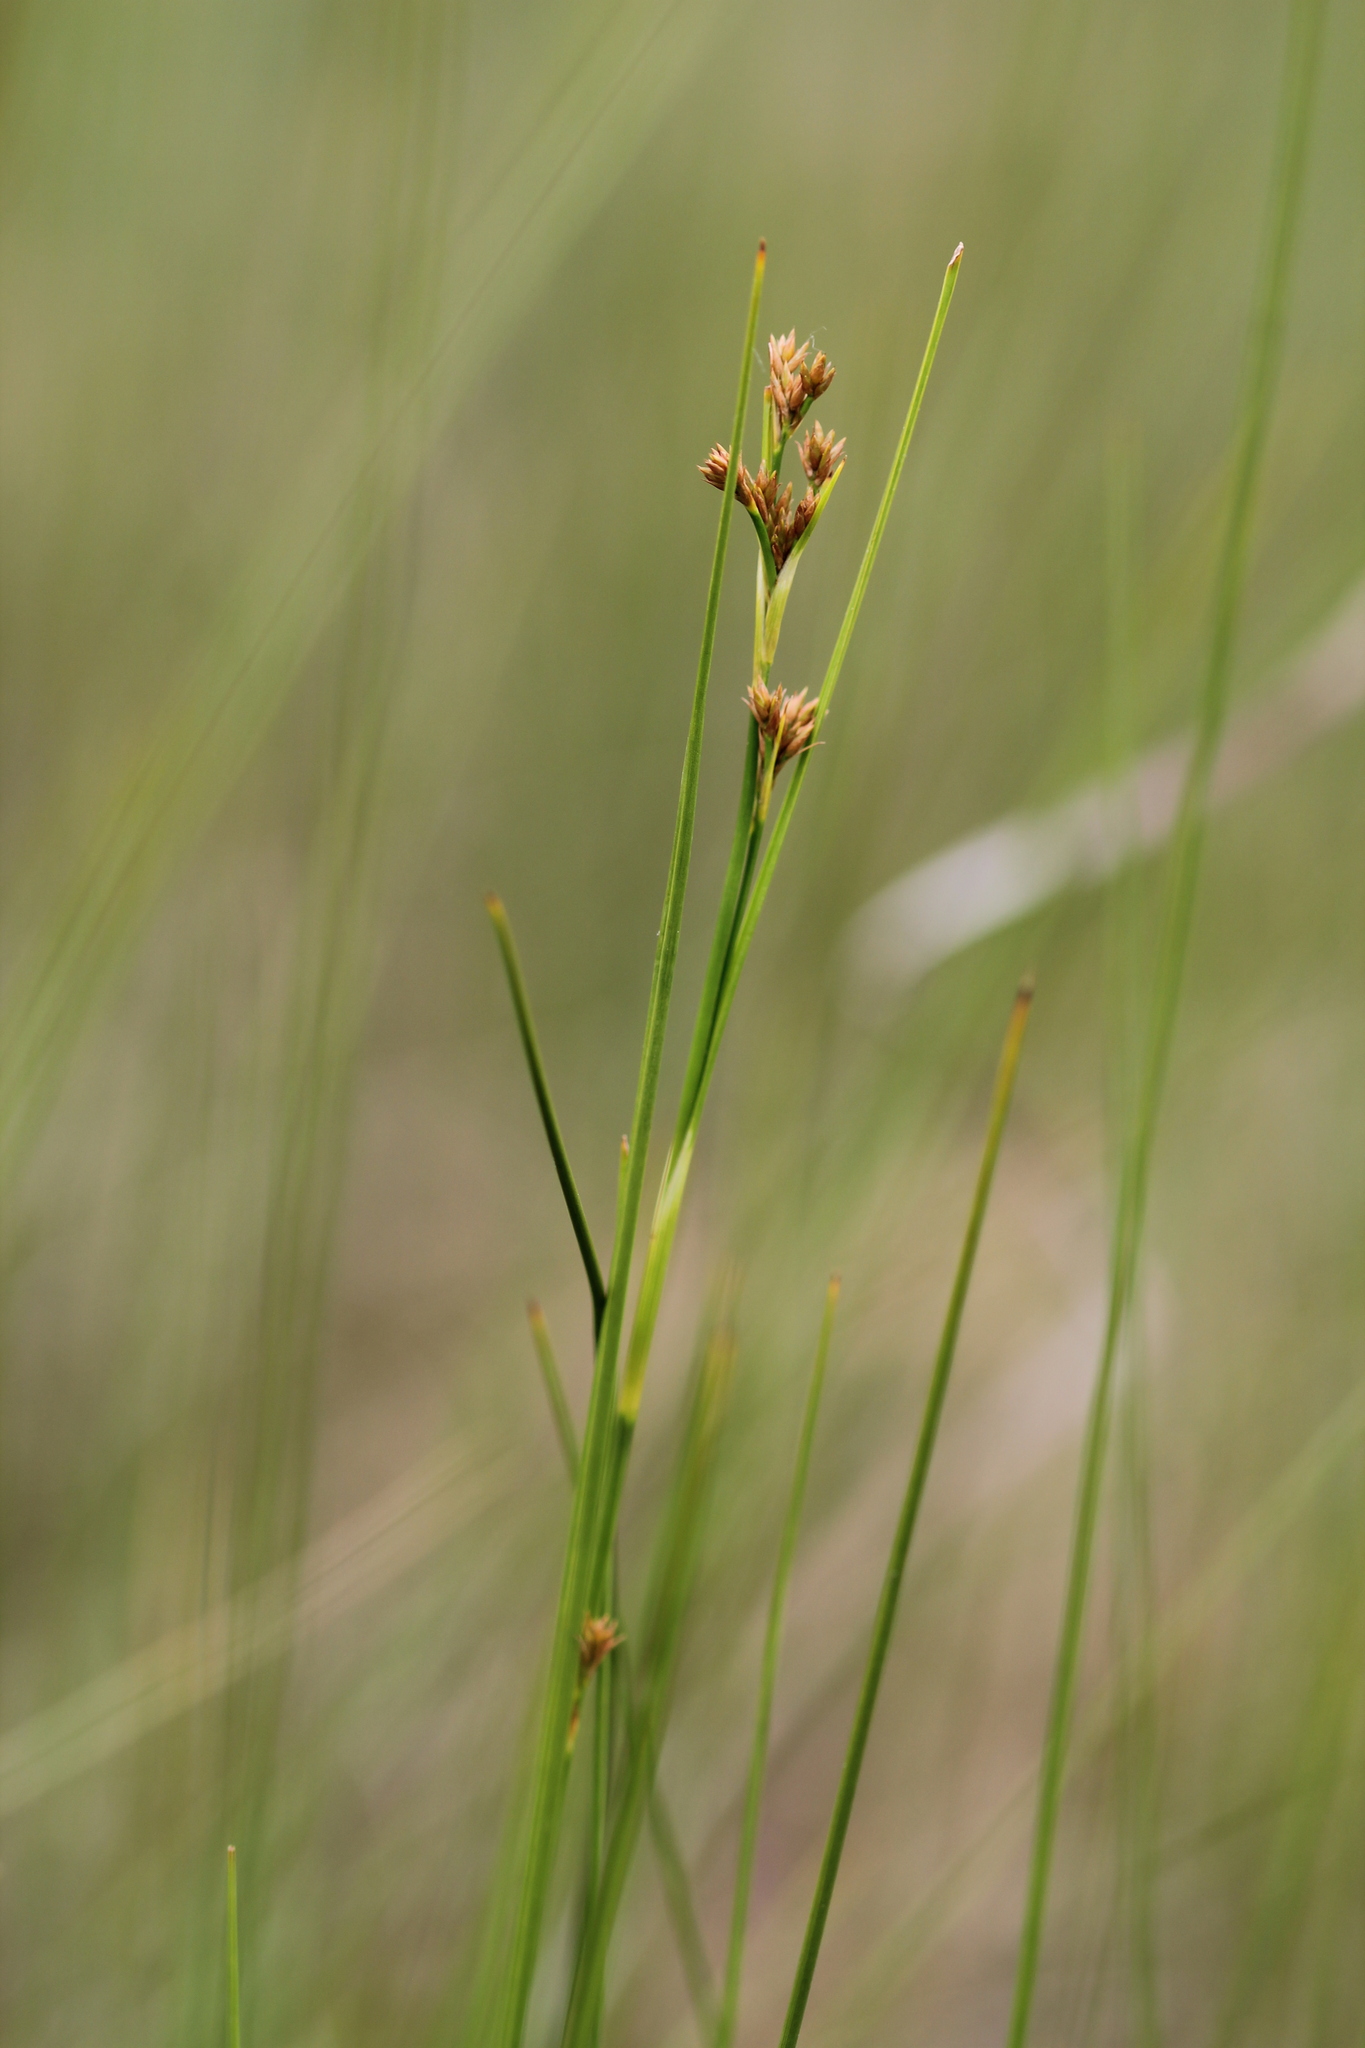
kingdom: Plantae
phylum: Tracheophyta
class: Liliopsida
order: Poales
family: Cyperaceae
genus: Cladium
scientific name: Cladium mariscoides
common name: Smooth sawgrass
